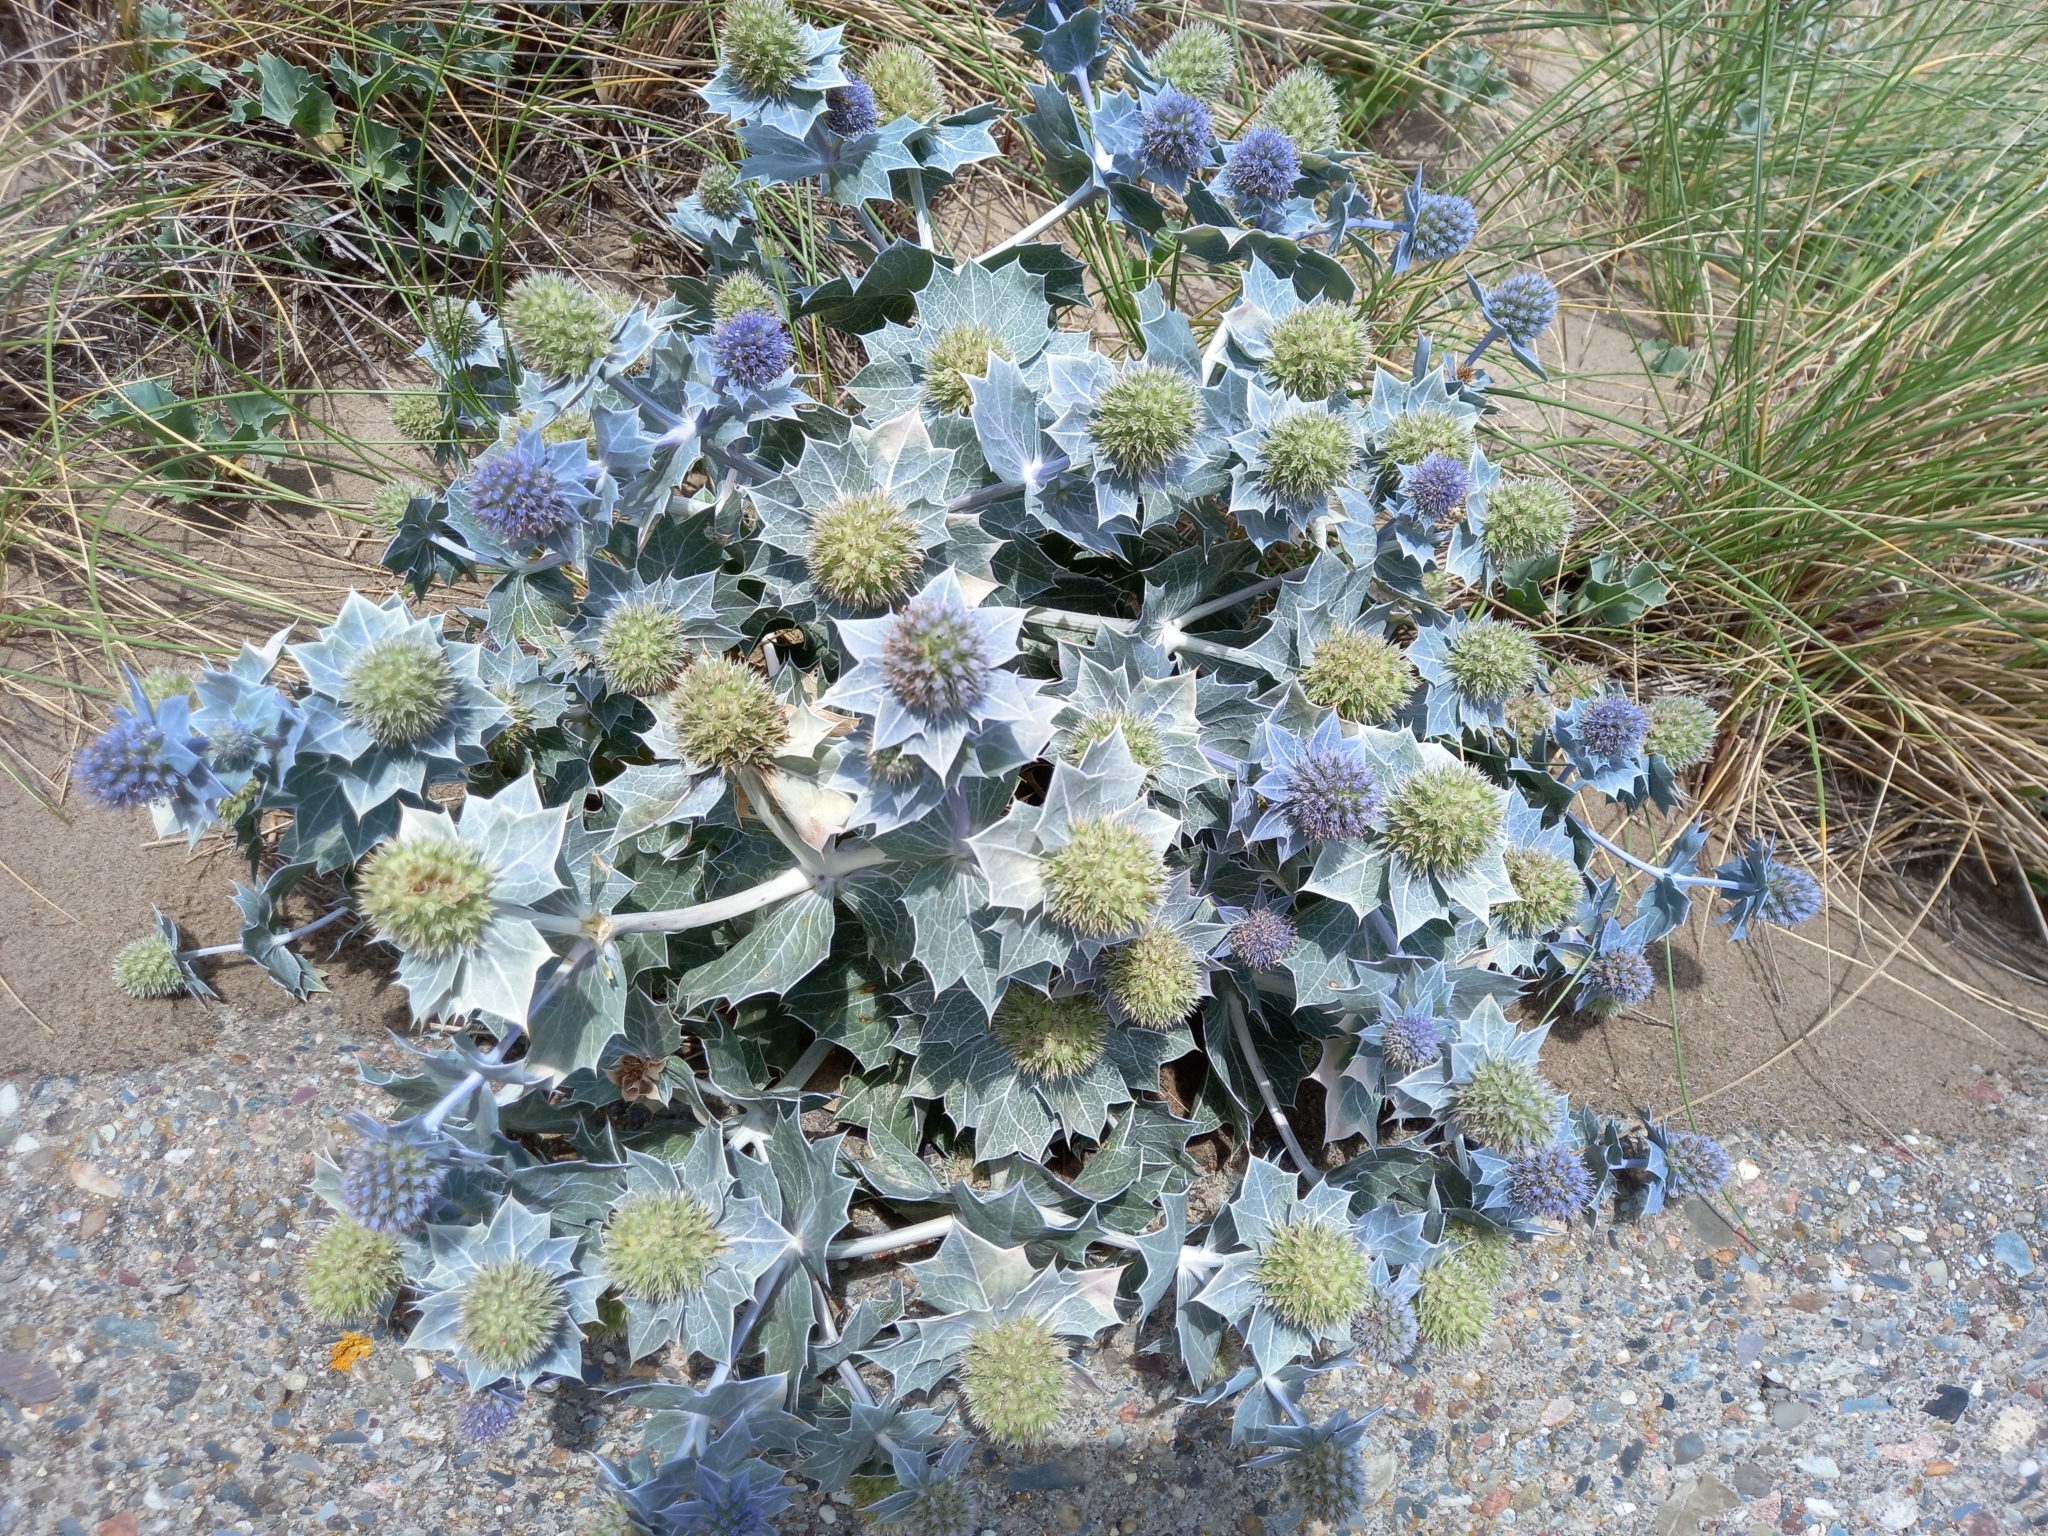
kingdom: Plantae
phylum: Tracheophyta
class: Magnoliopsida
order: Apiales
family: Apiaceae
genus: Eryngium
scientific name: Eryngium maritimum
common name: Sea-holly
